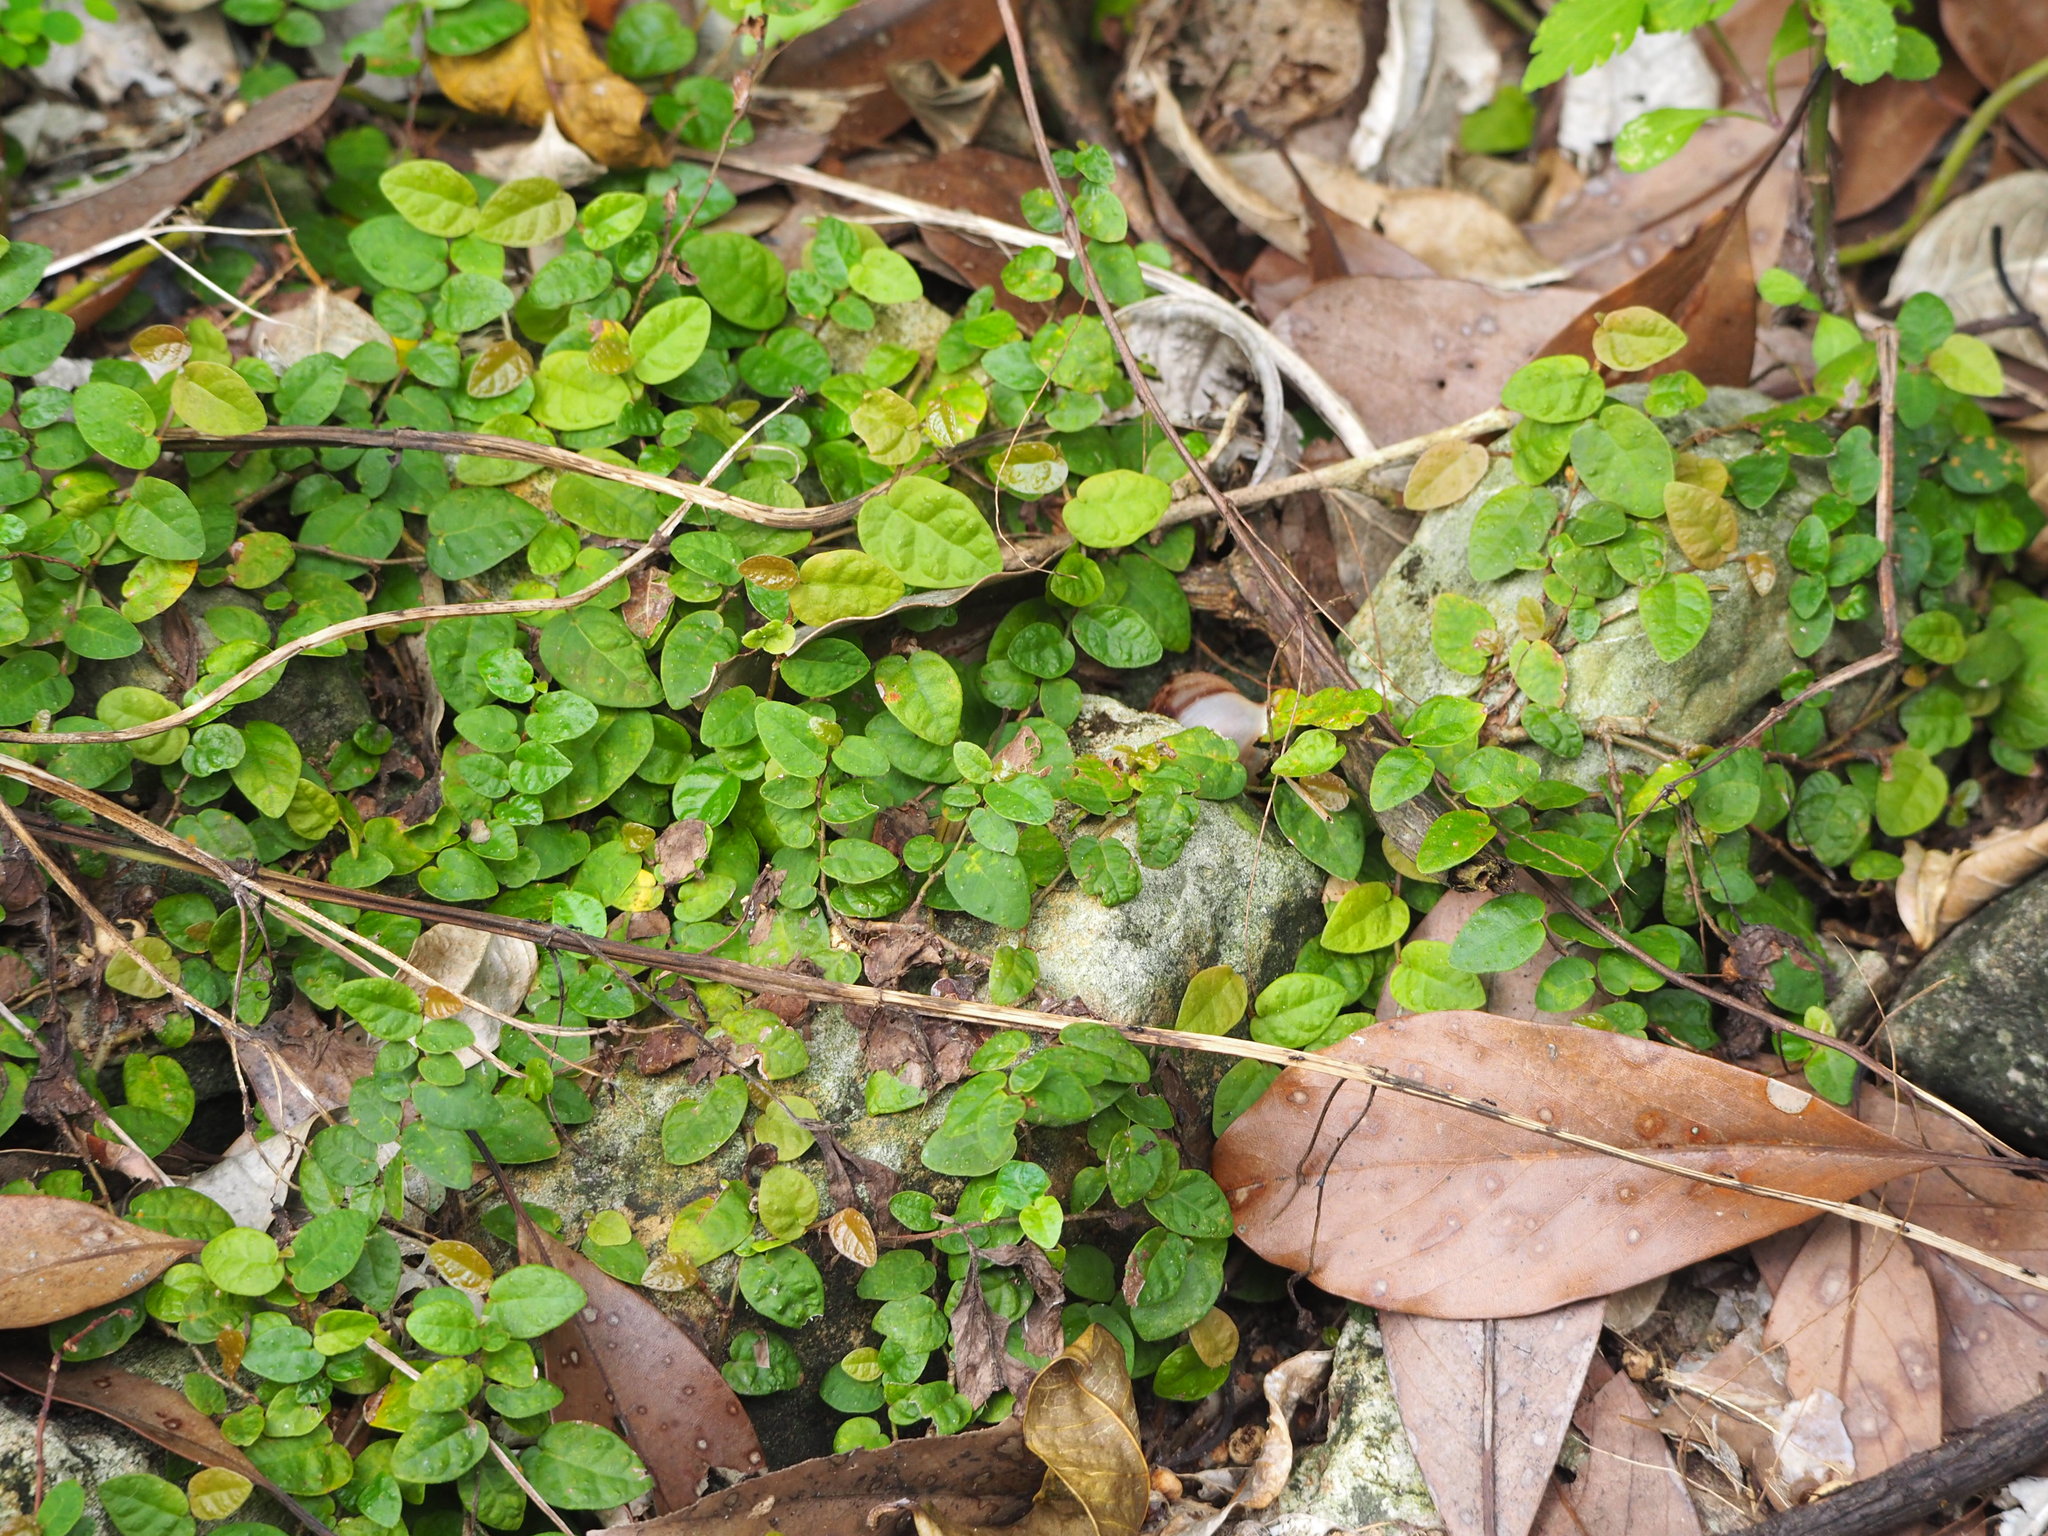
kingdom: Plantae
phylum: Tracheophyta
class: Magnoliopsida
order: Rosales
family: Moraceae
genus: Ficus
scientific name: Ficus pumila
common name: Climbingfig
